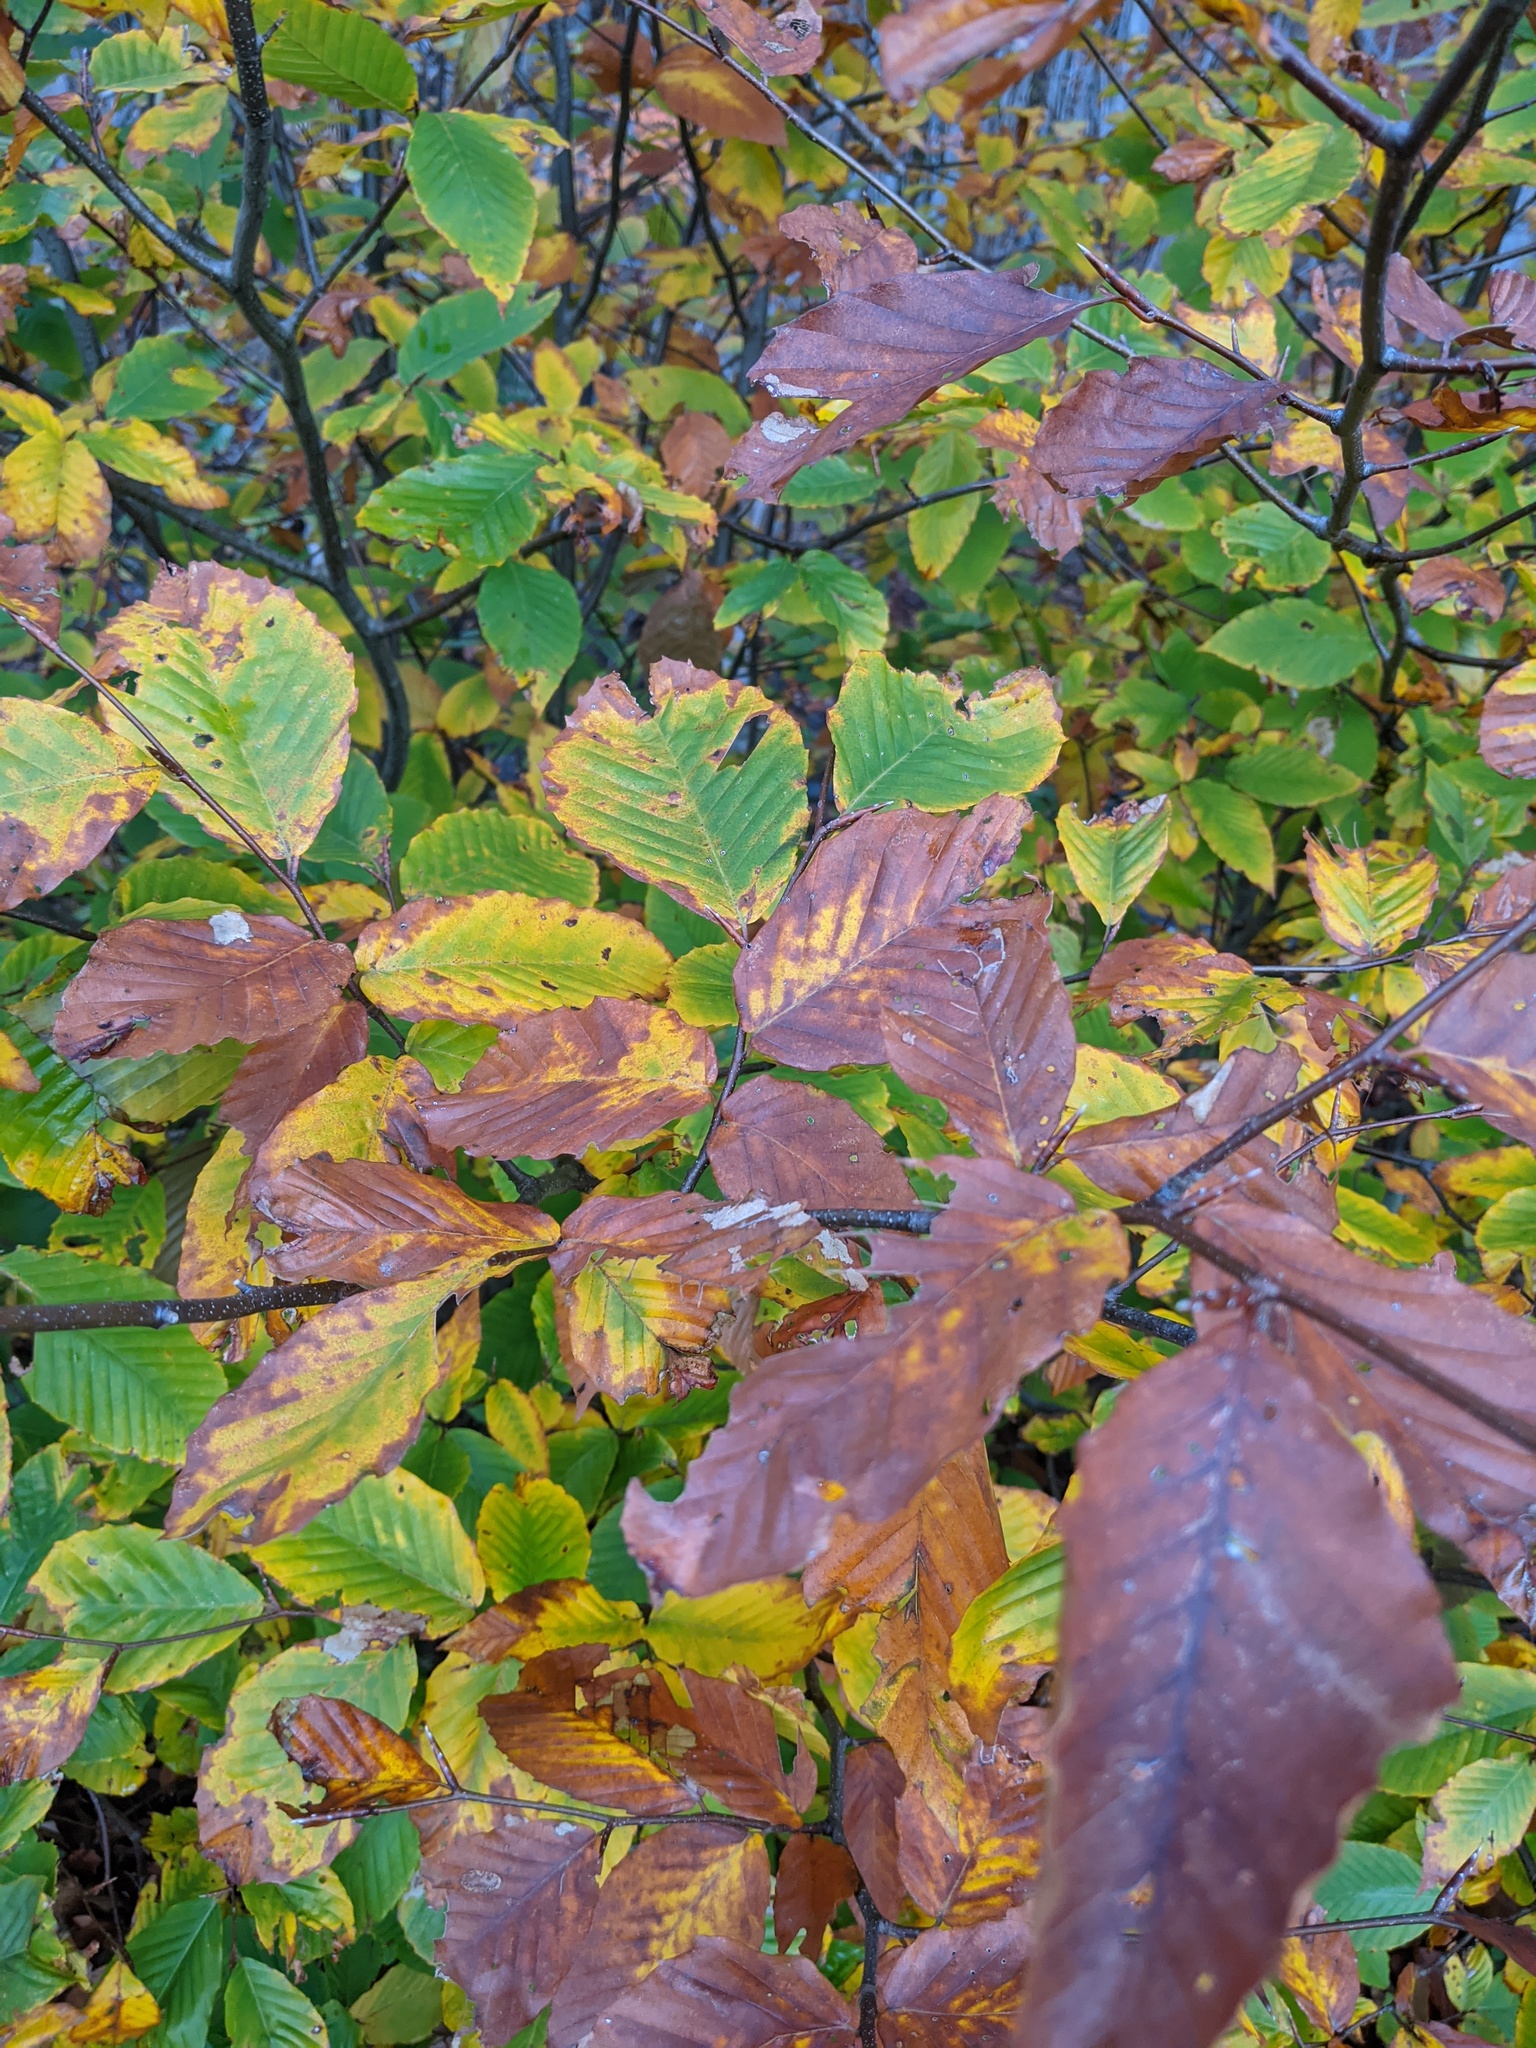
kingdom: Plantae
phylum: Tracheophyta
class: Magnoliopsida
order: Fagales
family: Fagaceae
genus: Fagus
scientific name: Fagus grandifolia
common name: American beech
